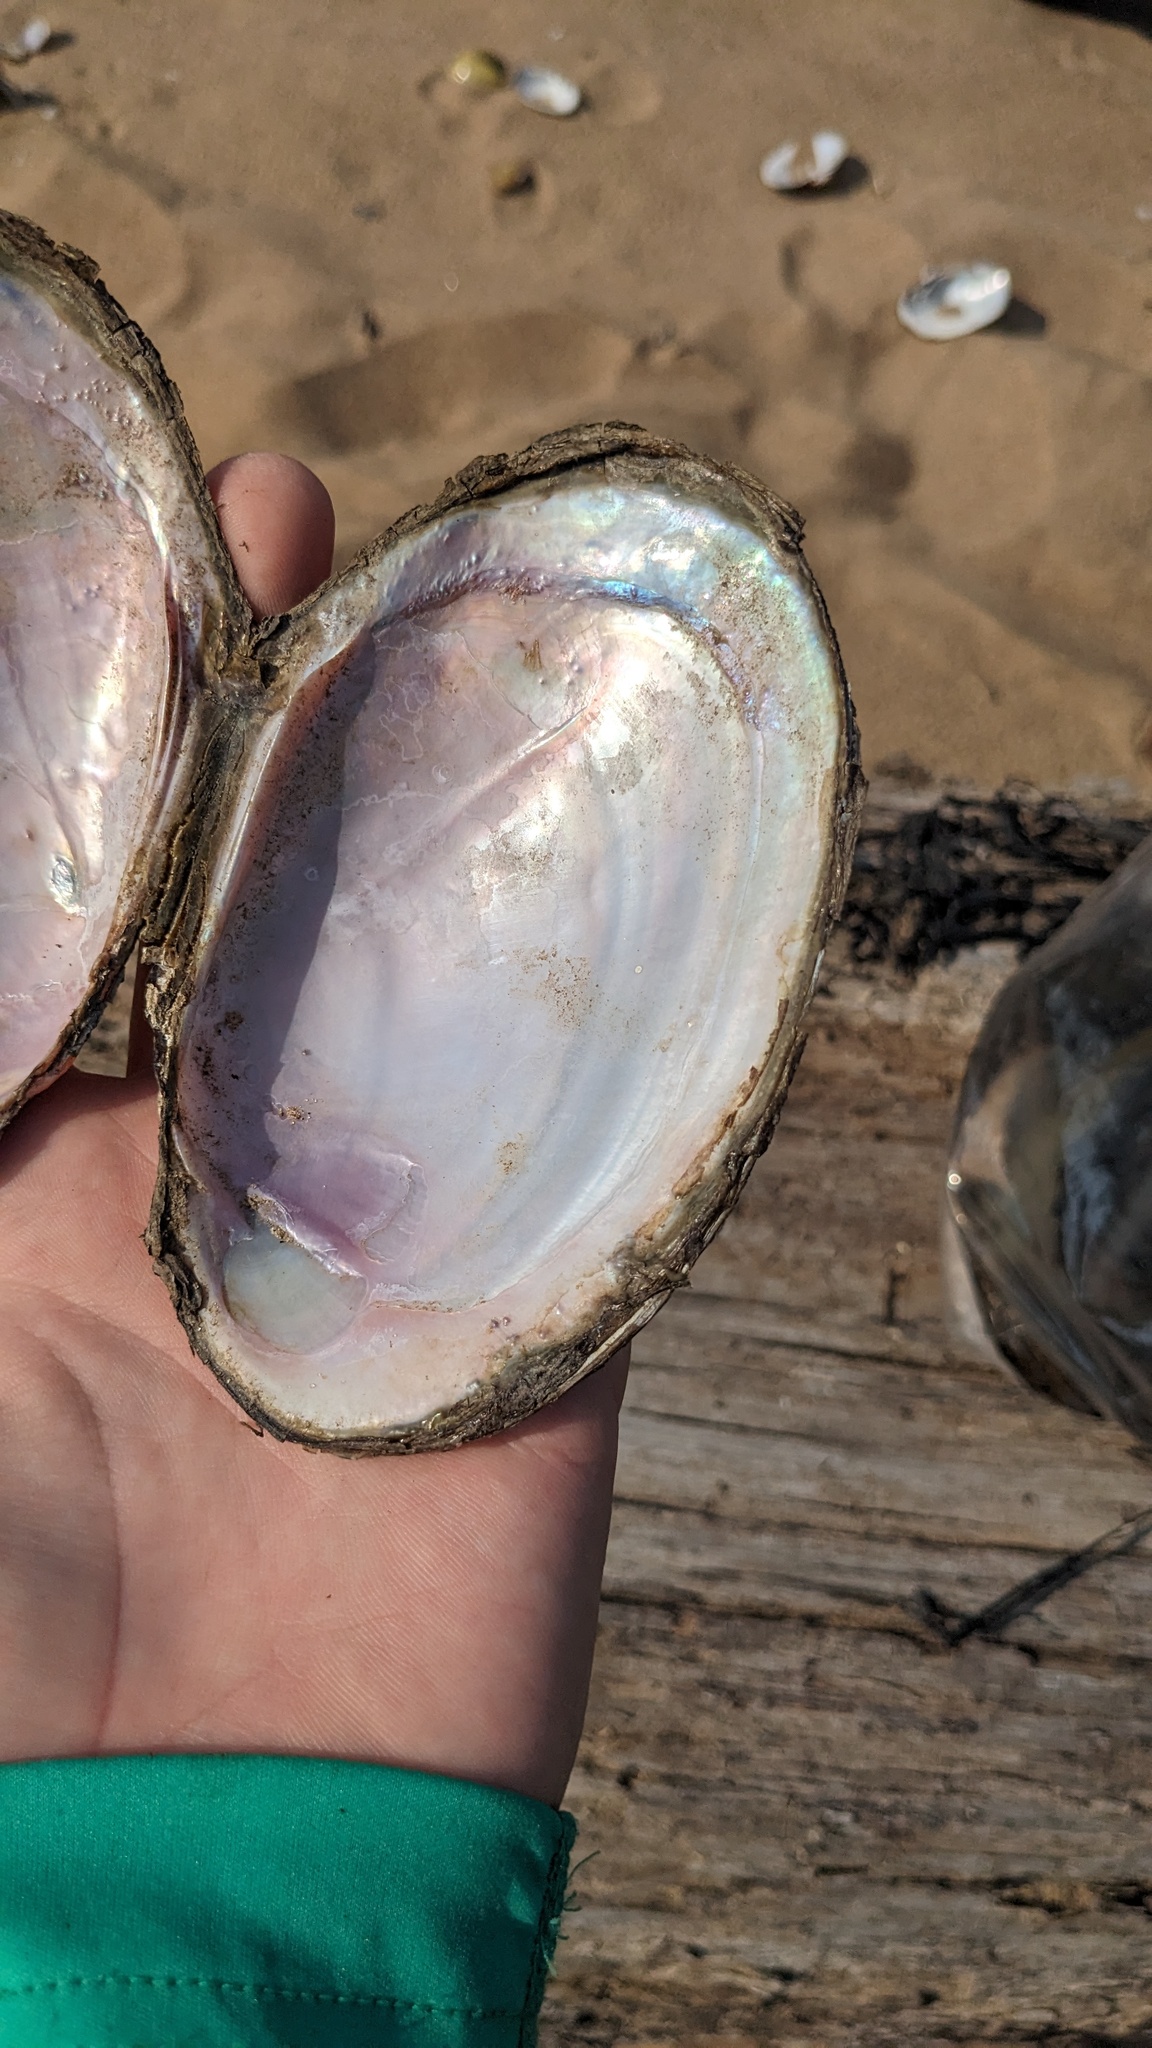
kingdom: Animalia
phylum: Mollusca
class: Bivalvia
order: Unionida
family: Unionidae
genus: Potamilus
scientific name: Potamilus fragilis
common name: Fragile papershell
